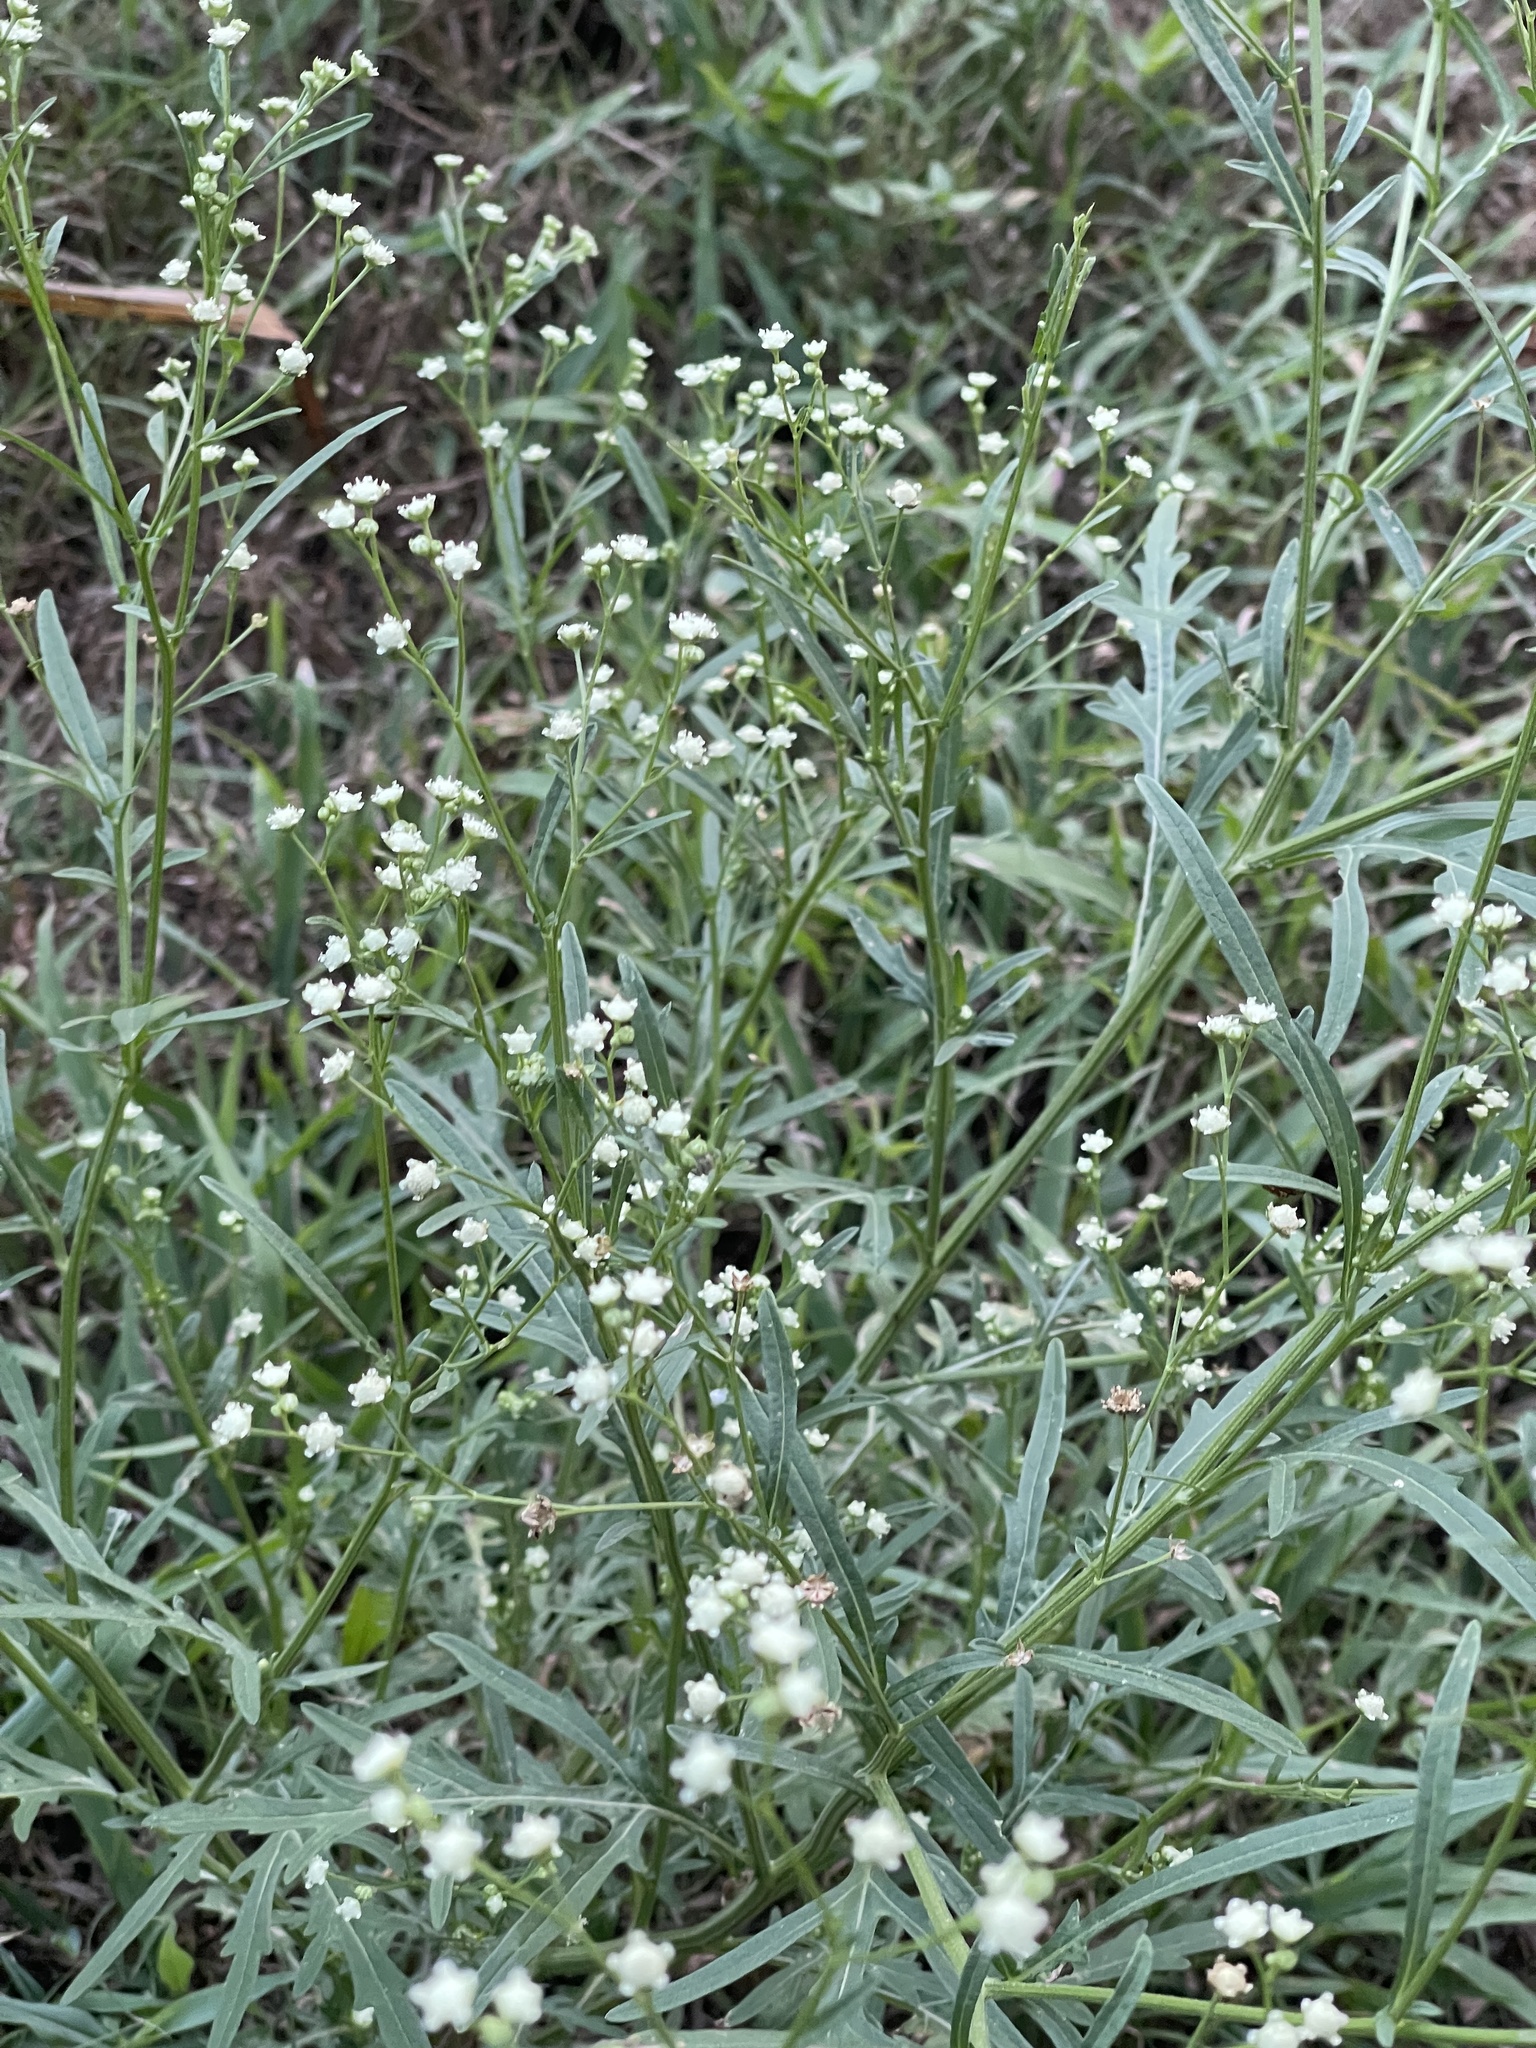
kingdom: Plantae
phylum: Tracheophyta
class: Magnoliopsida
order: Asterales
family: Asteraceae
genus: Parthenium
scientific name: Parthenium hysterophorus
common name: Santa maria feverfew
